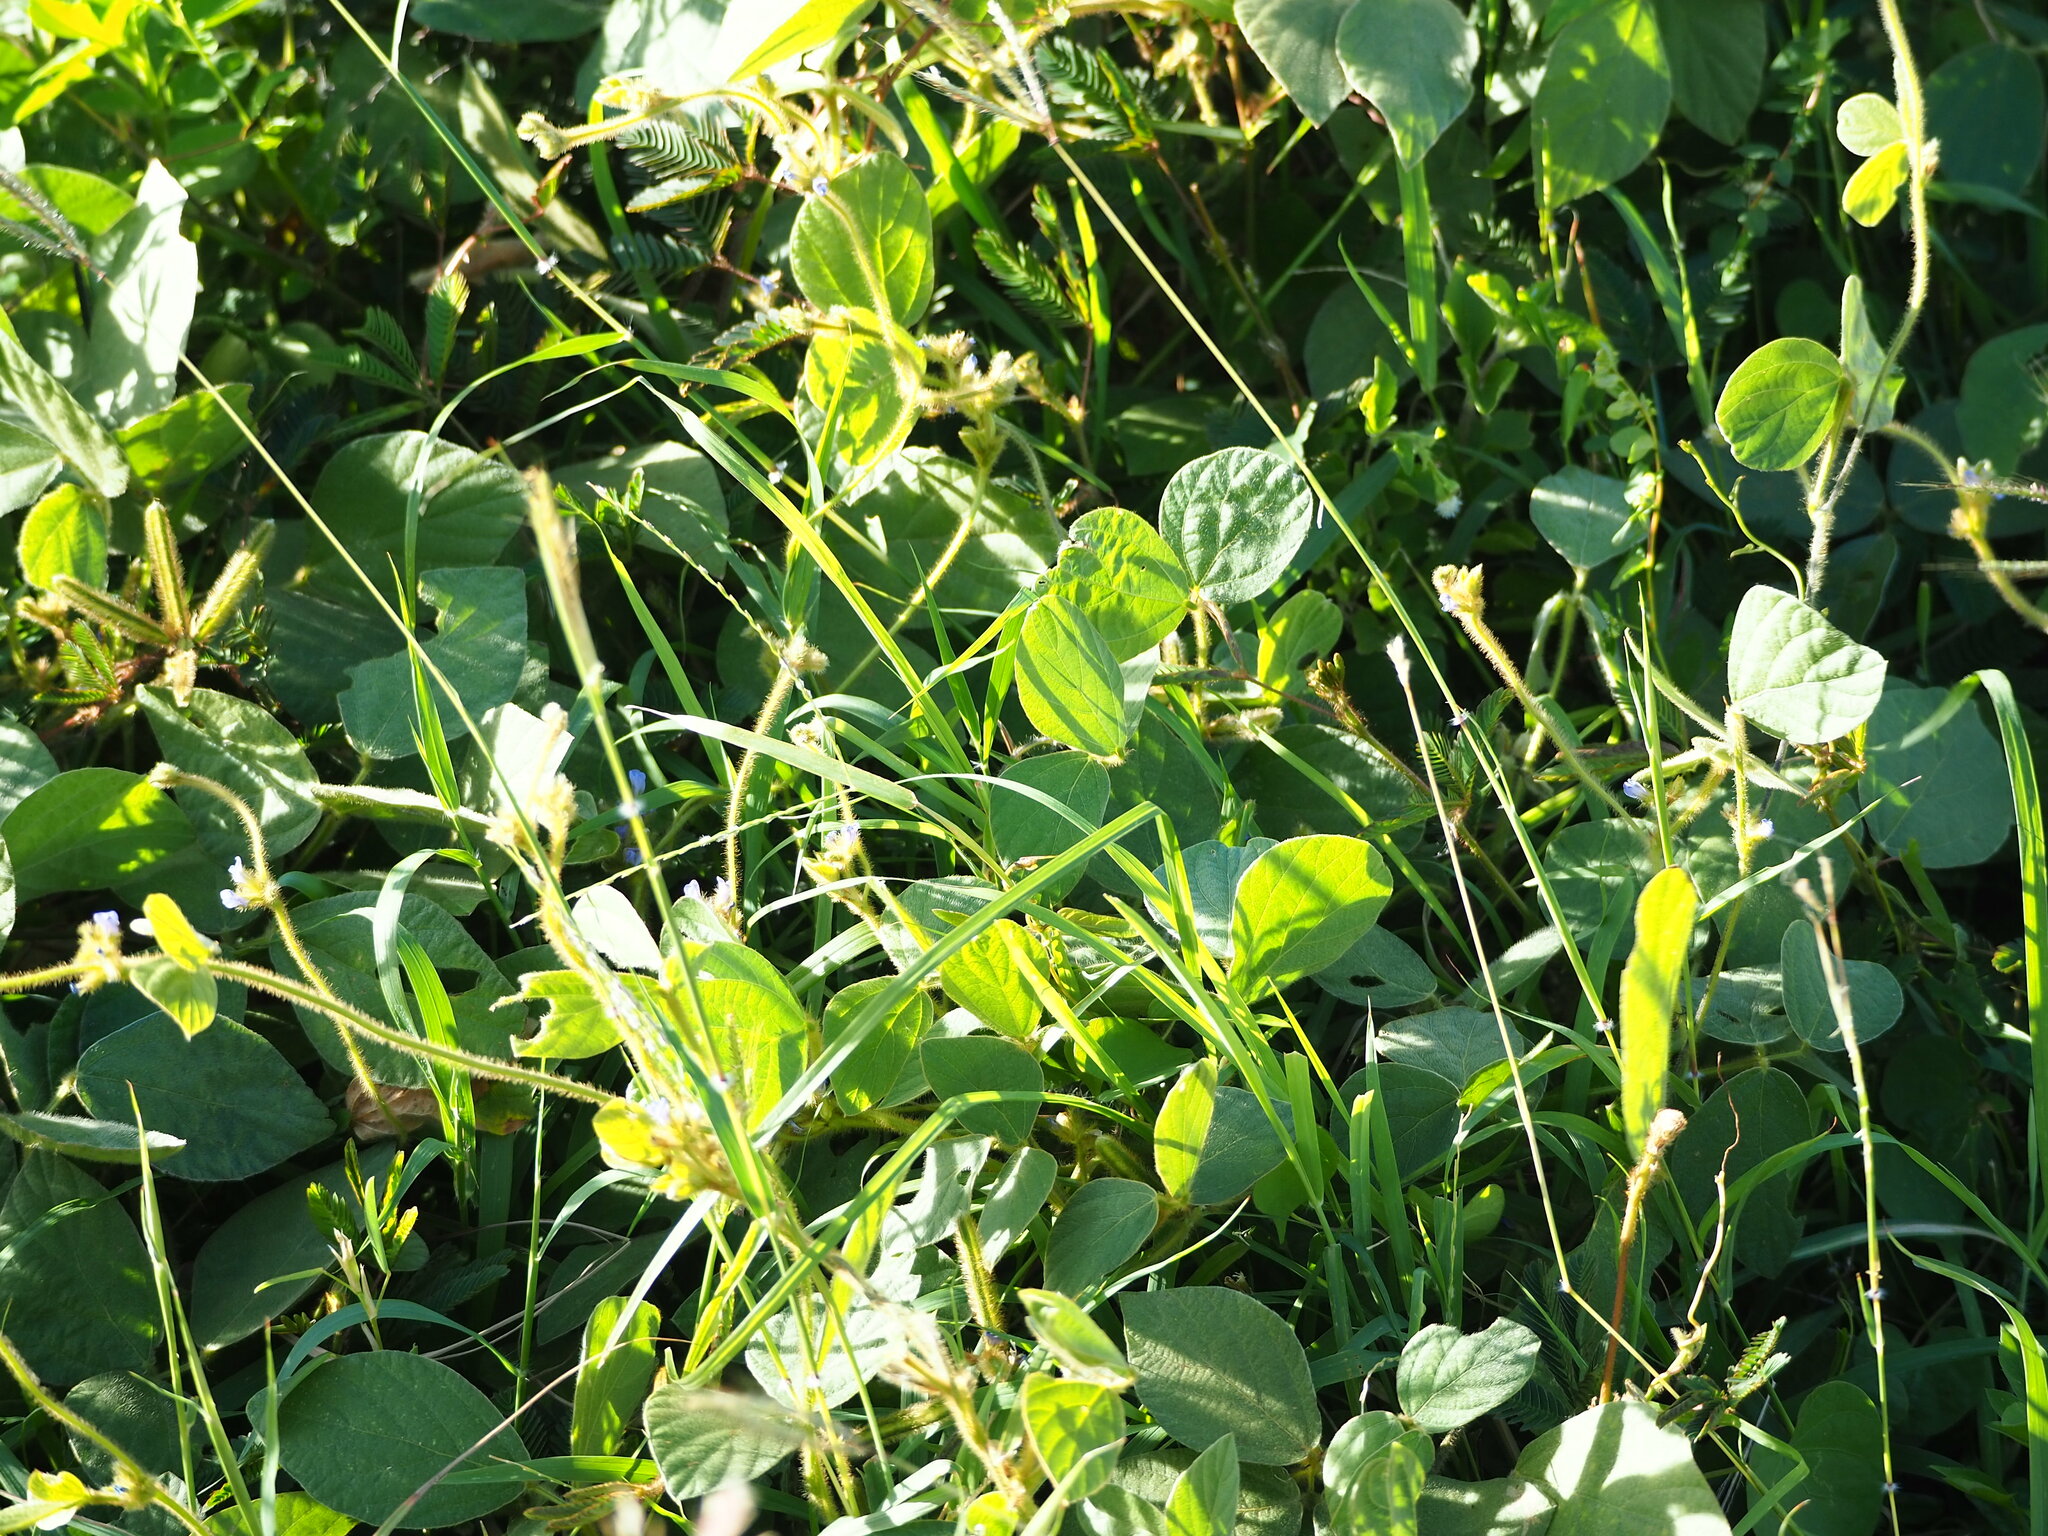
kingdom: Plantae
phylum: Tracheophyta
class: Magnoliopsida
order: Fabales
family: Fabaceae
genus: Calopogonium
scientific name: Calopogonium mucunoides
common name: Calopo
